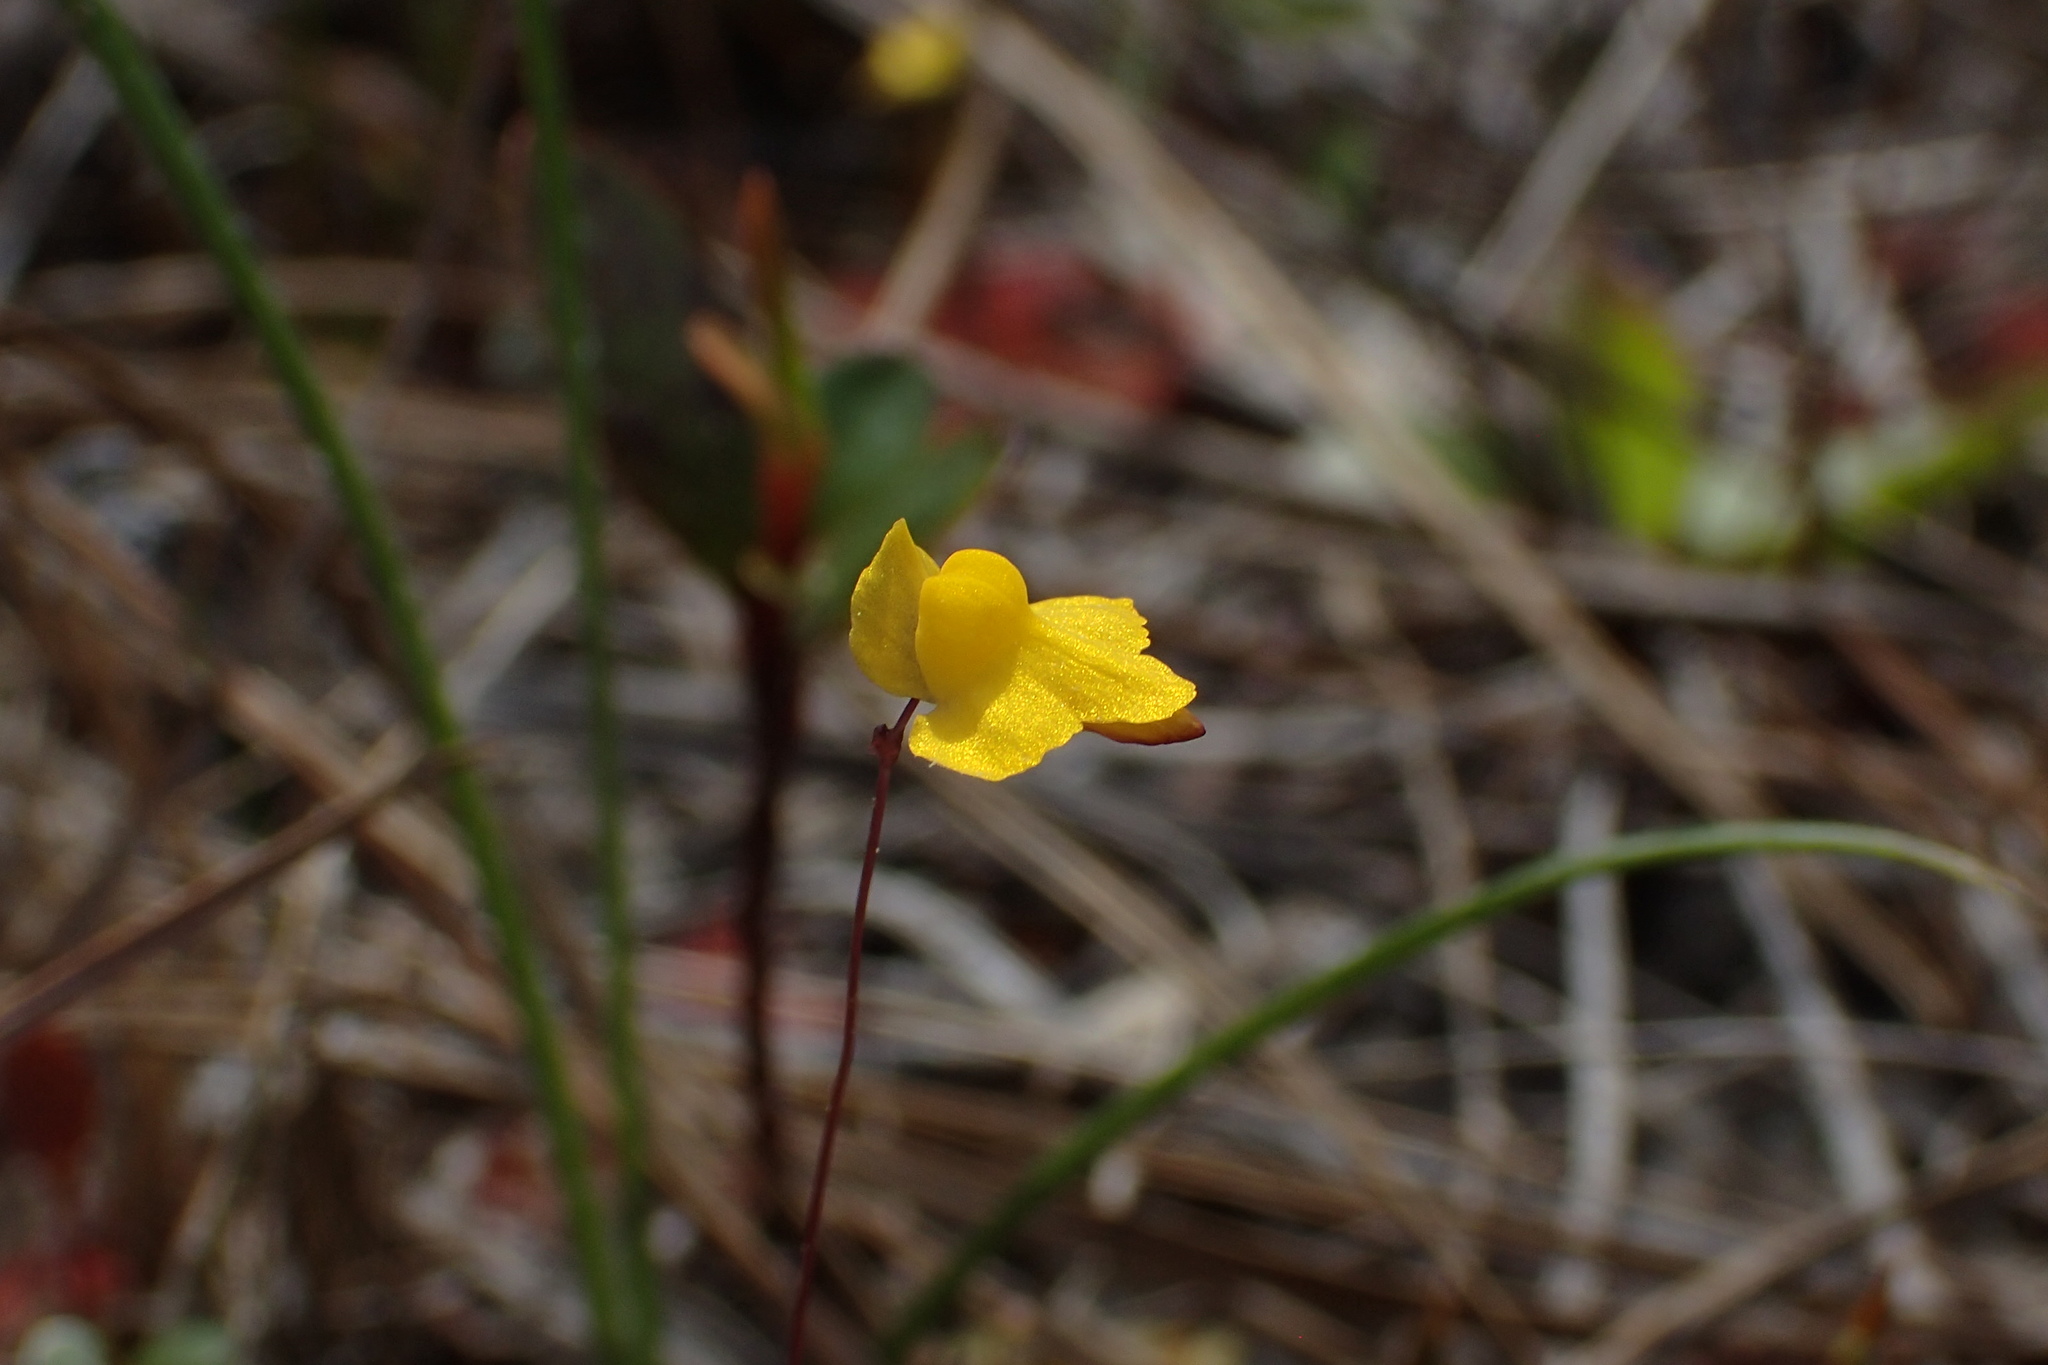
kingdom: Plantae
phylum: Tracheophyta
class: Magnoliopsida
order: Lamiales
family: Lentibulariaceae
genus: Utricularia
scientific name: Utricularia subulata
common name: Tiny bladderwort
